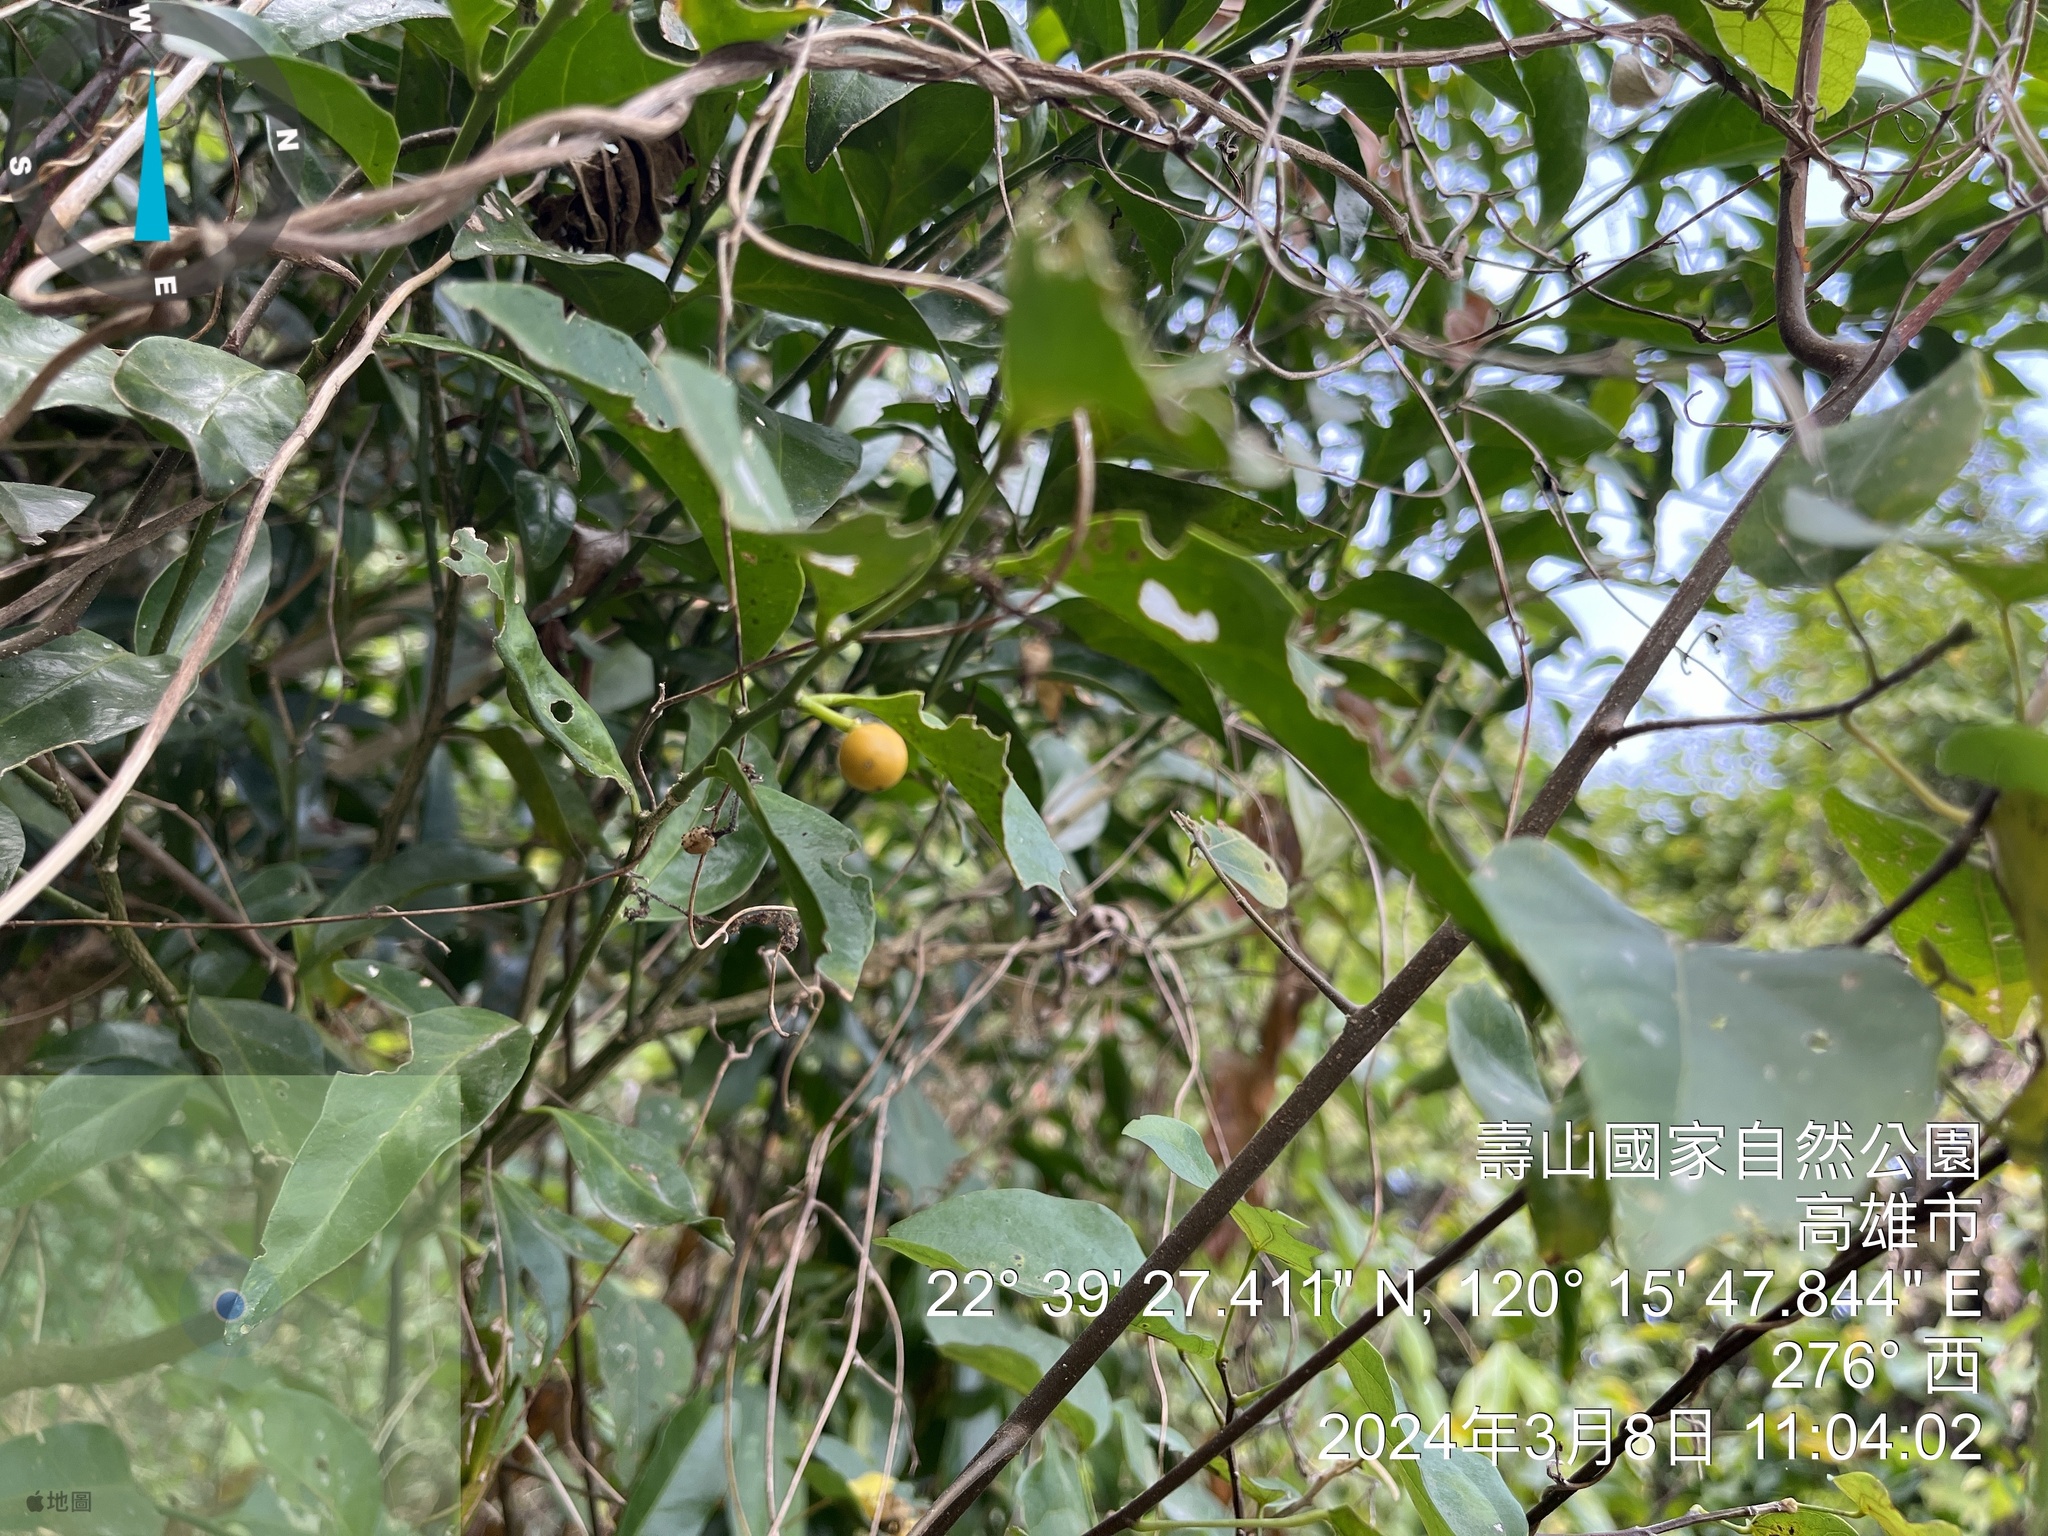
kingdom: Plantae
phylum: Tracheophyta
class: Magnoliopsida
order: Santalales
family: Opiliaceae
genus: Champereia
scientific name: Champereia manillana
